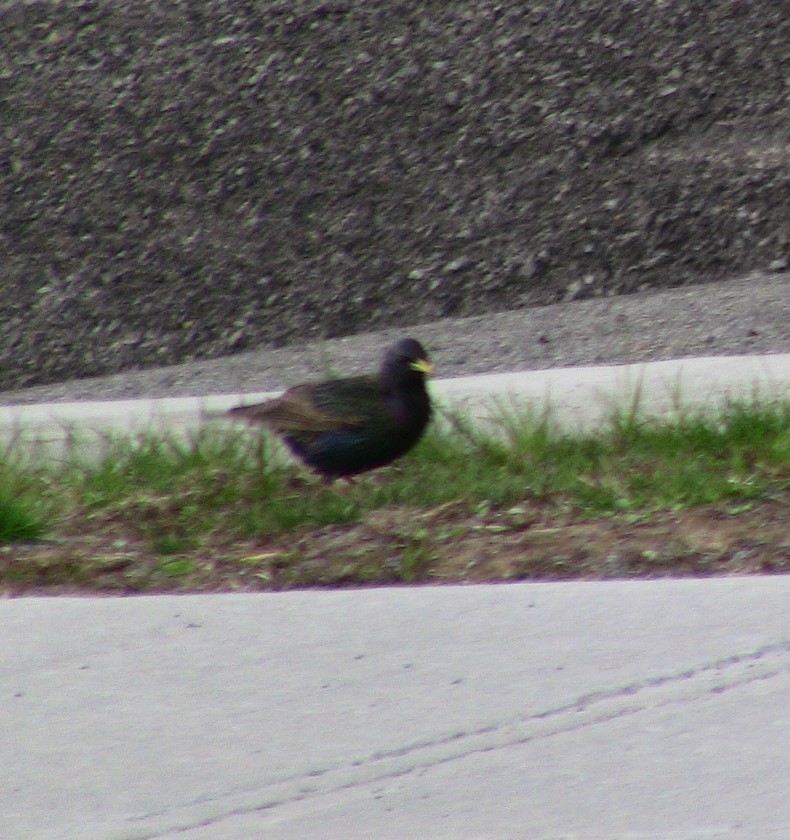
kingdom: Animalia
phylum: Chordata
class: Aves
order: Passeriformes
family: Sturnidae
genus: Sturnus
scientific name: Sturnus vulgaris
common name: Common starling
